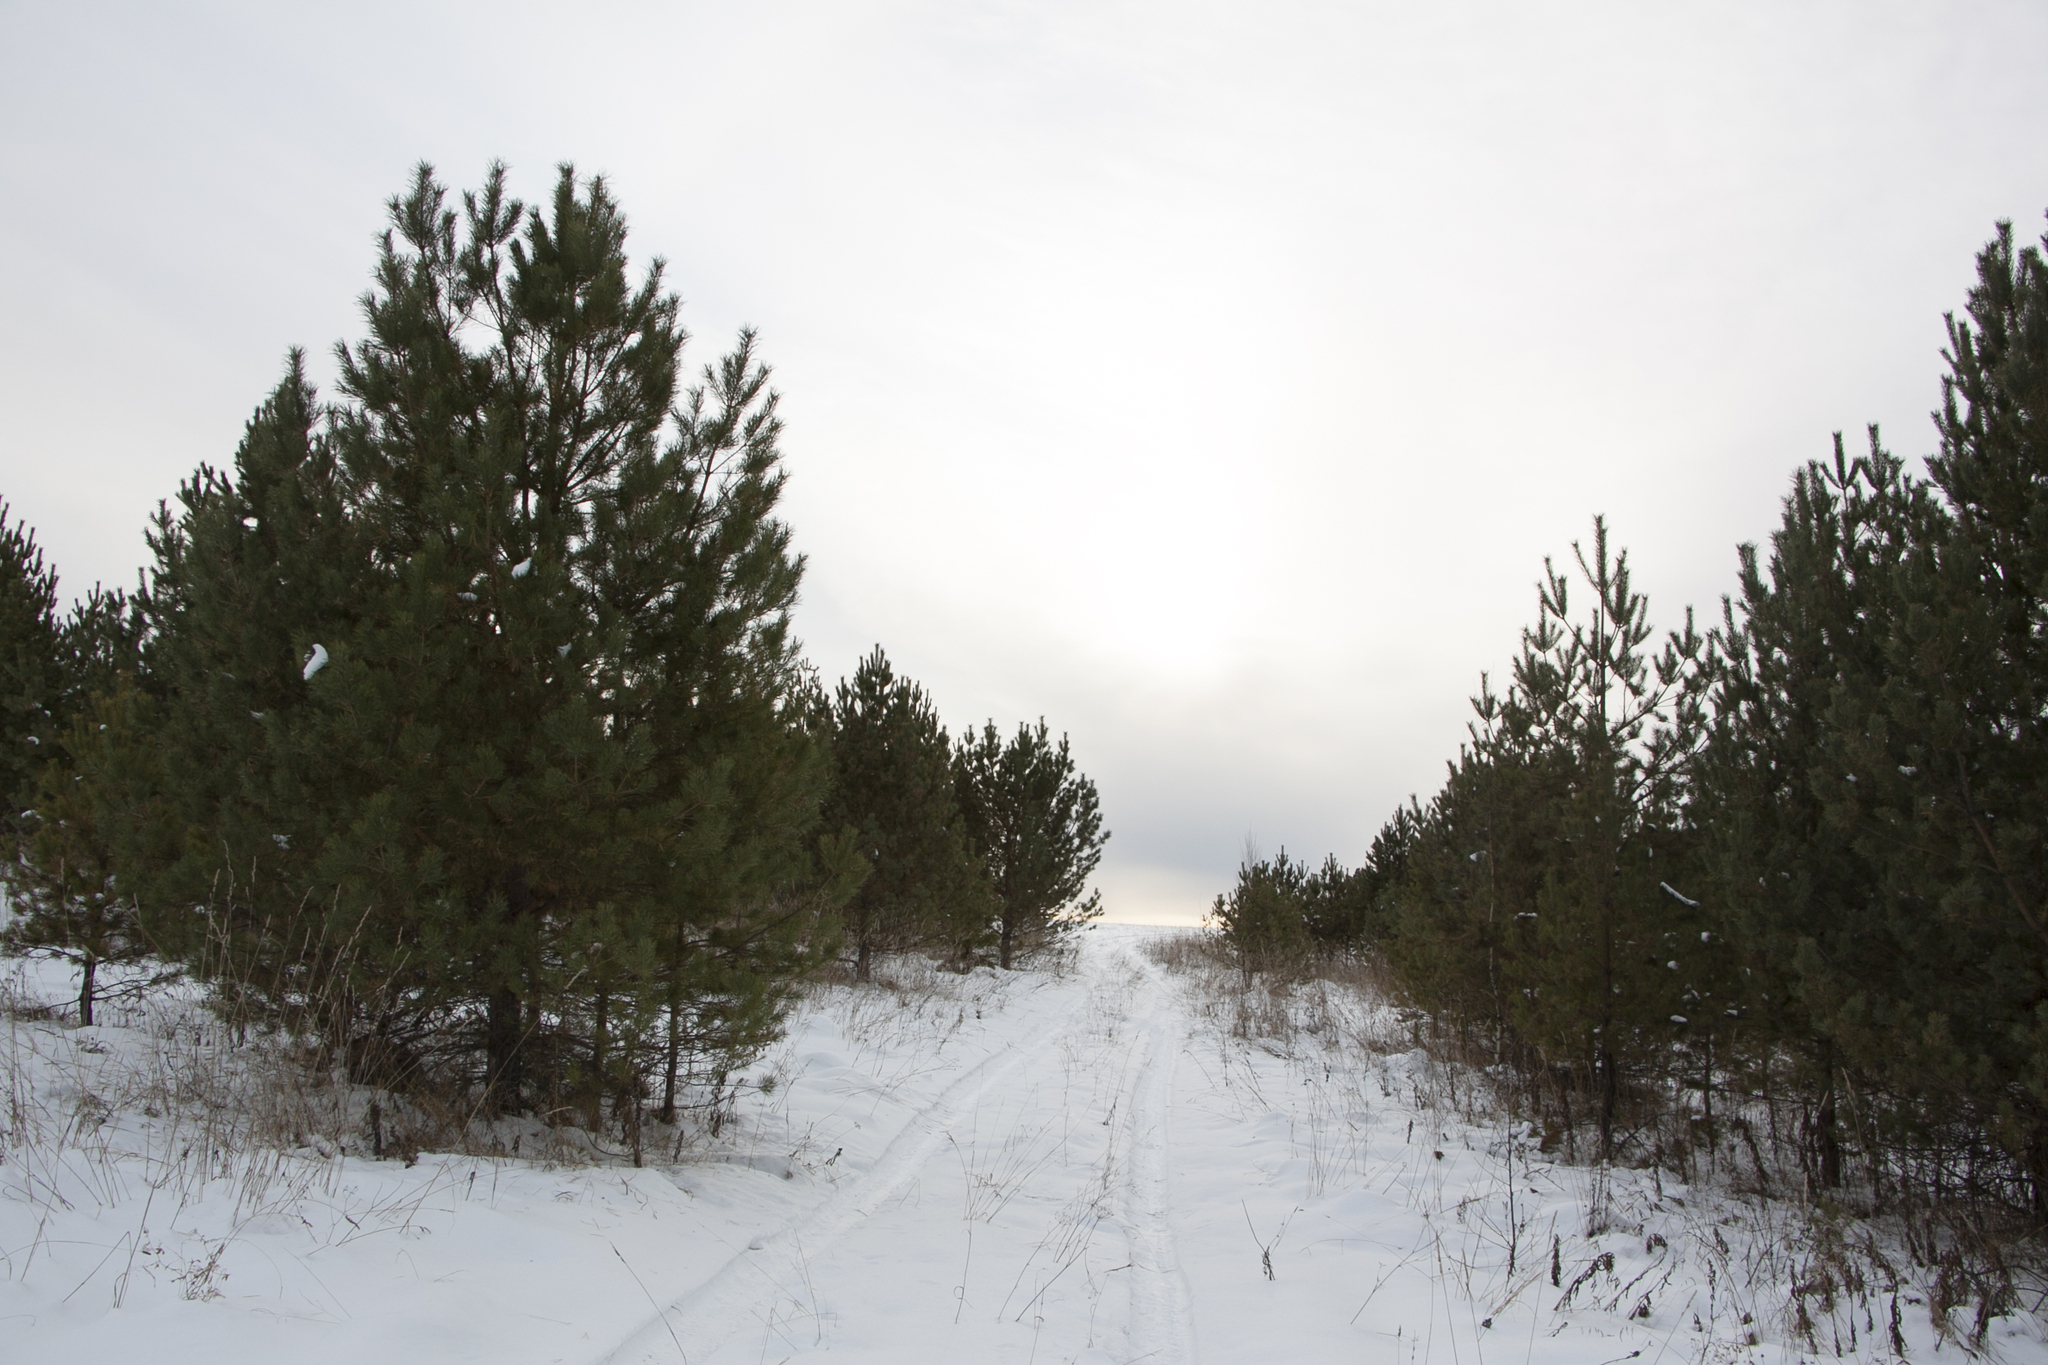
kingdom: Plantae
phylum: Tracheophyta
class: Pinopsida
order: Pinales
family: Pinaceae
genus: Pinus
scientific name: Pinus sylvestris
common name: Scots pine
